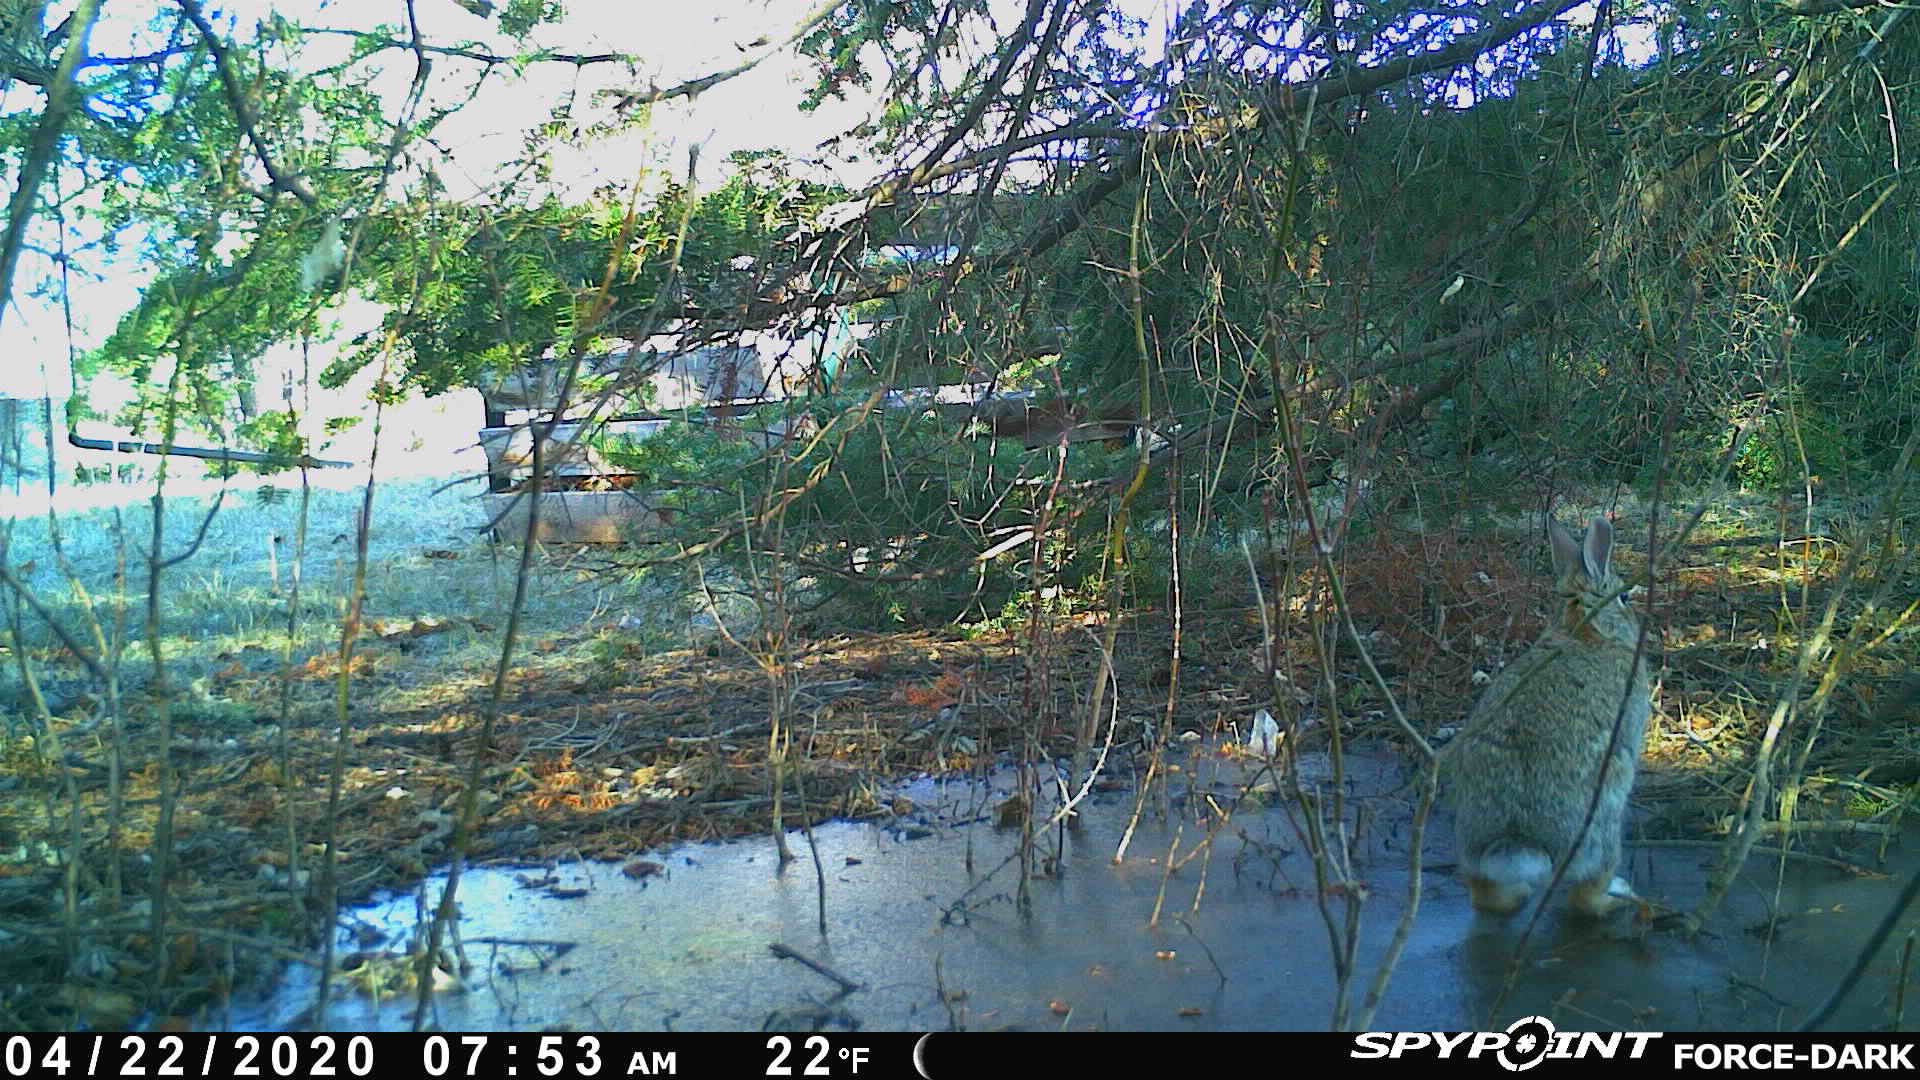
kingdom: Animalia
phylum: Chordata
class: Mammalia
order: Lagomorpha
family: Leporidae
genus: Sylvilagus
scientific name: Sylvilagus floridanus
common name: Eastern cottontail
